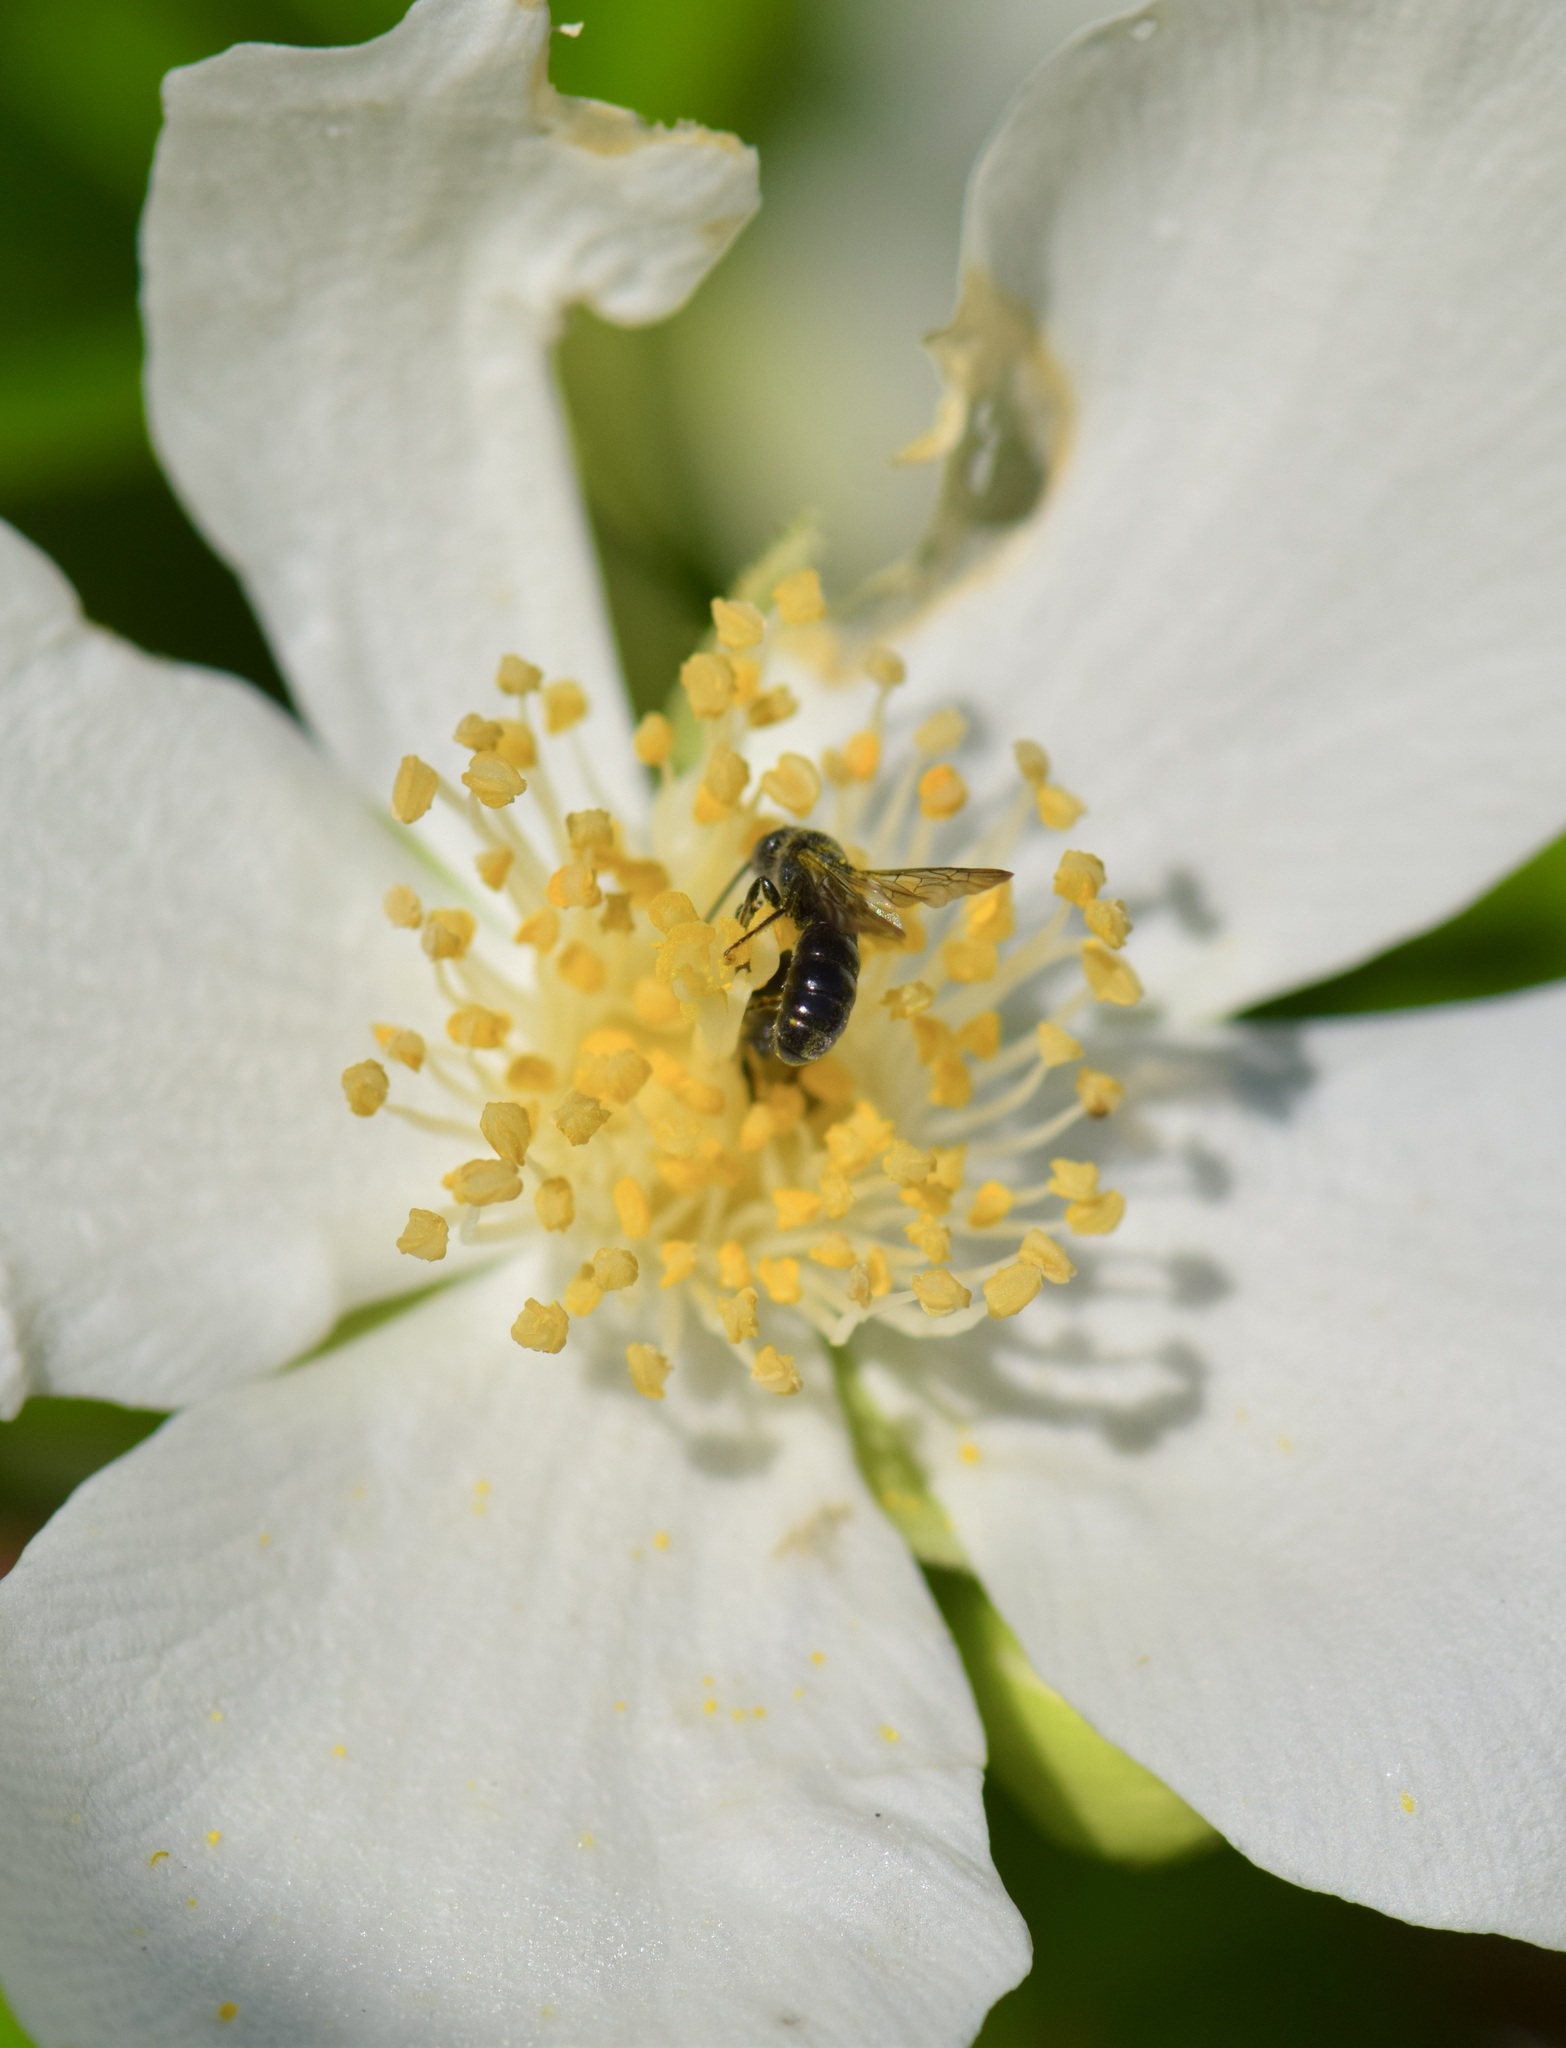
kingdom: Animalia
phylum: Arthropoda
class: Insecta
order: Hymenoptera
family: Megachilidae
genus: Chelostoma
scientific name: Chelostoma philadelphi
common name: Mock-orange scissor bee
